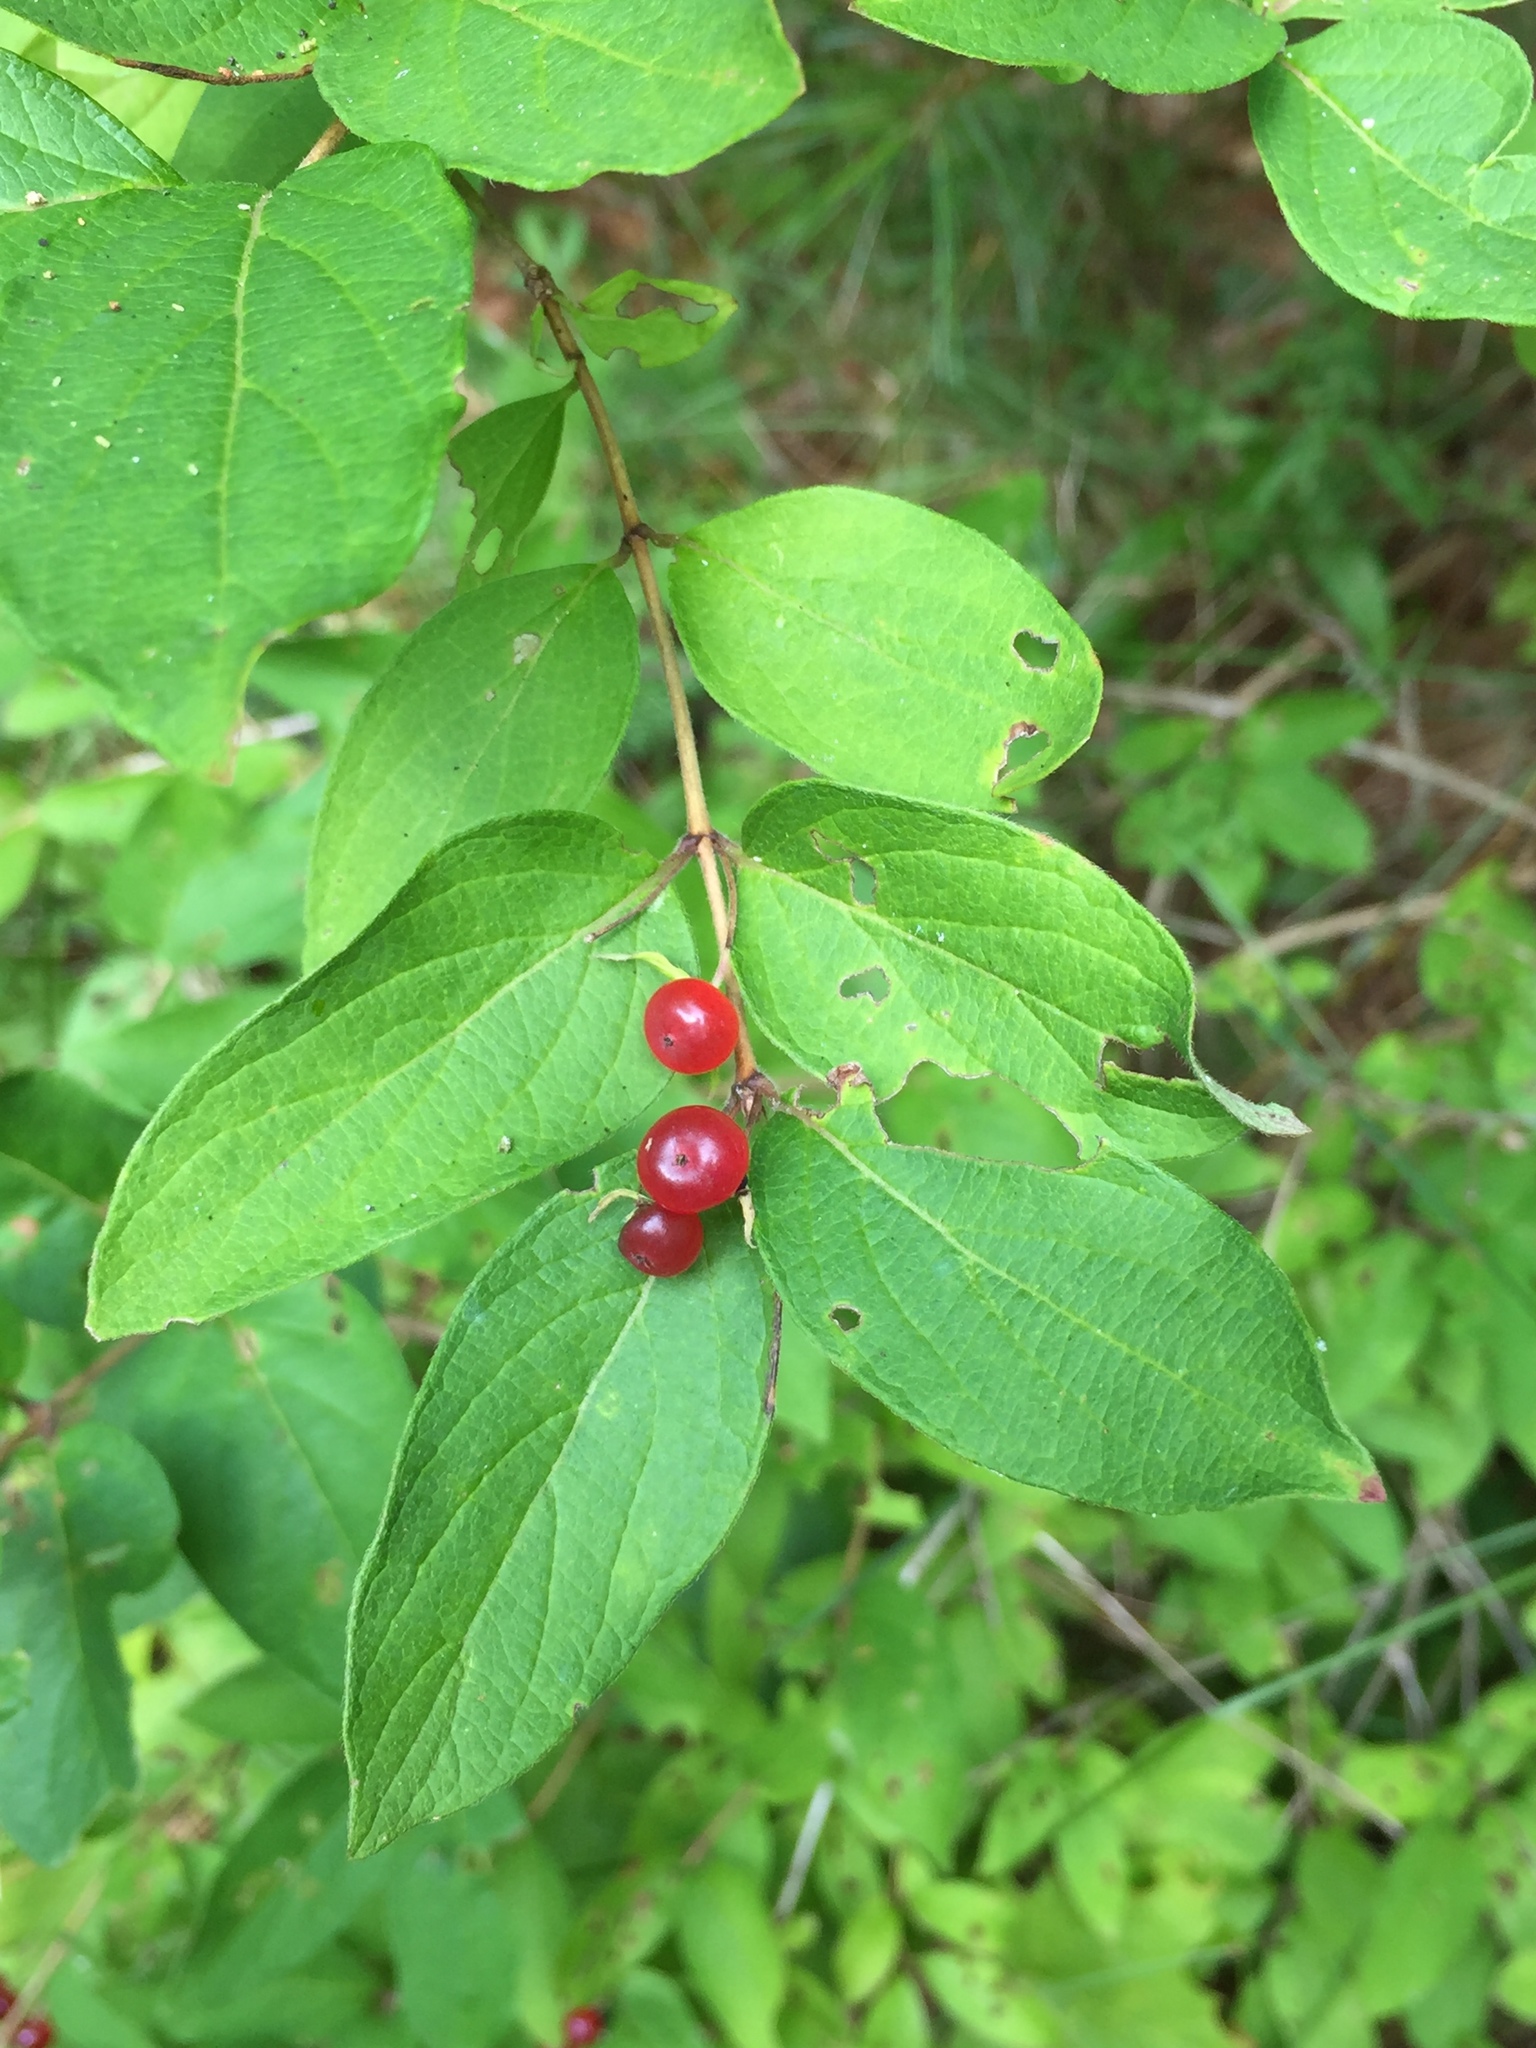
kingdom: Plantae
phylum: Tracheophyta
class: Magnoliopsida
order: Dipsacales
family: Caprifoliaceae
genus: Lonicera
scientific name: Lonicera bella
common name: Bell's honeysuckle
